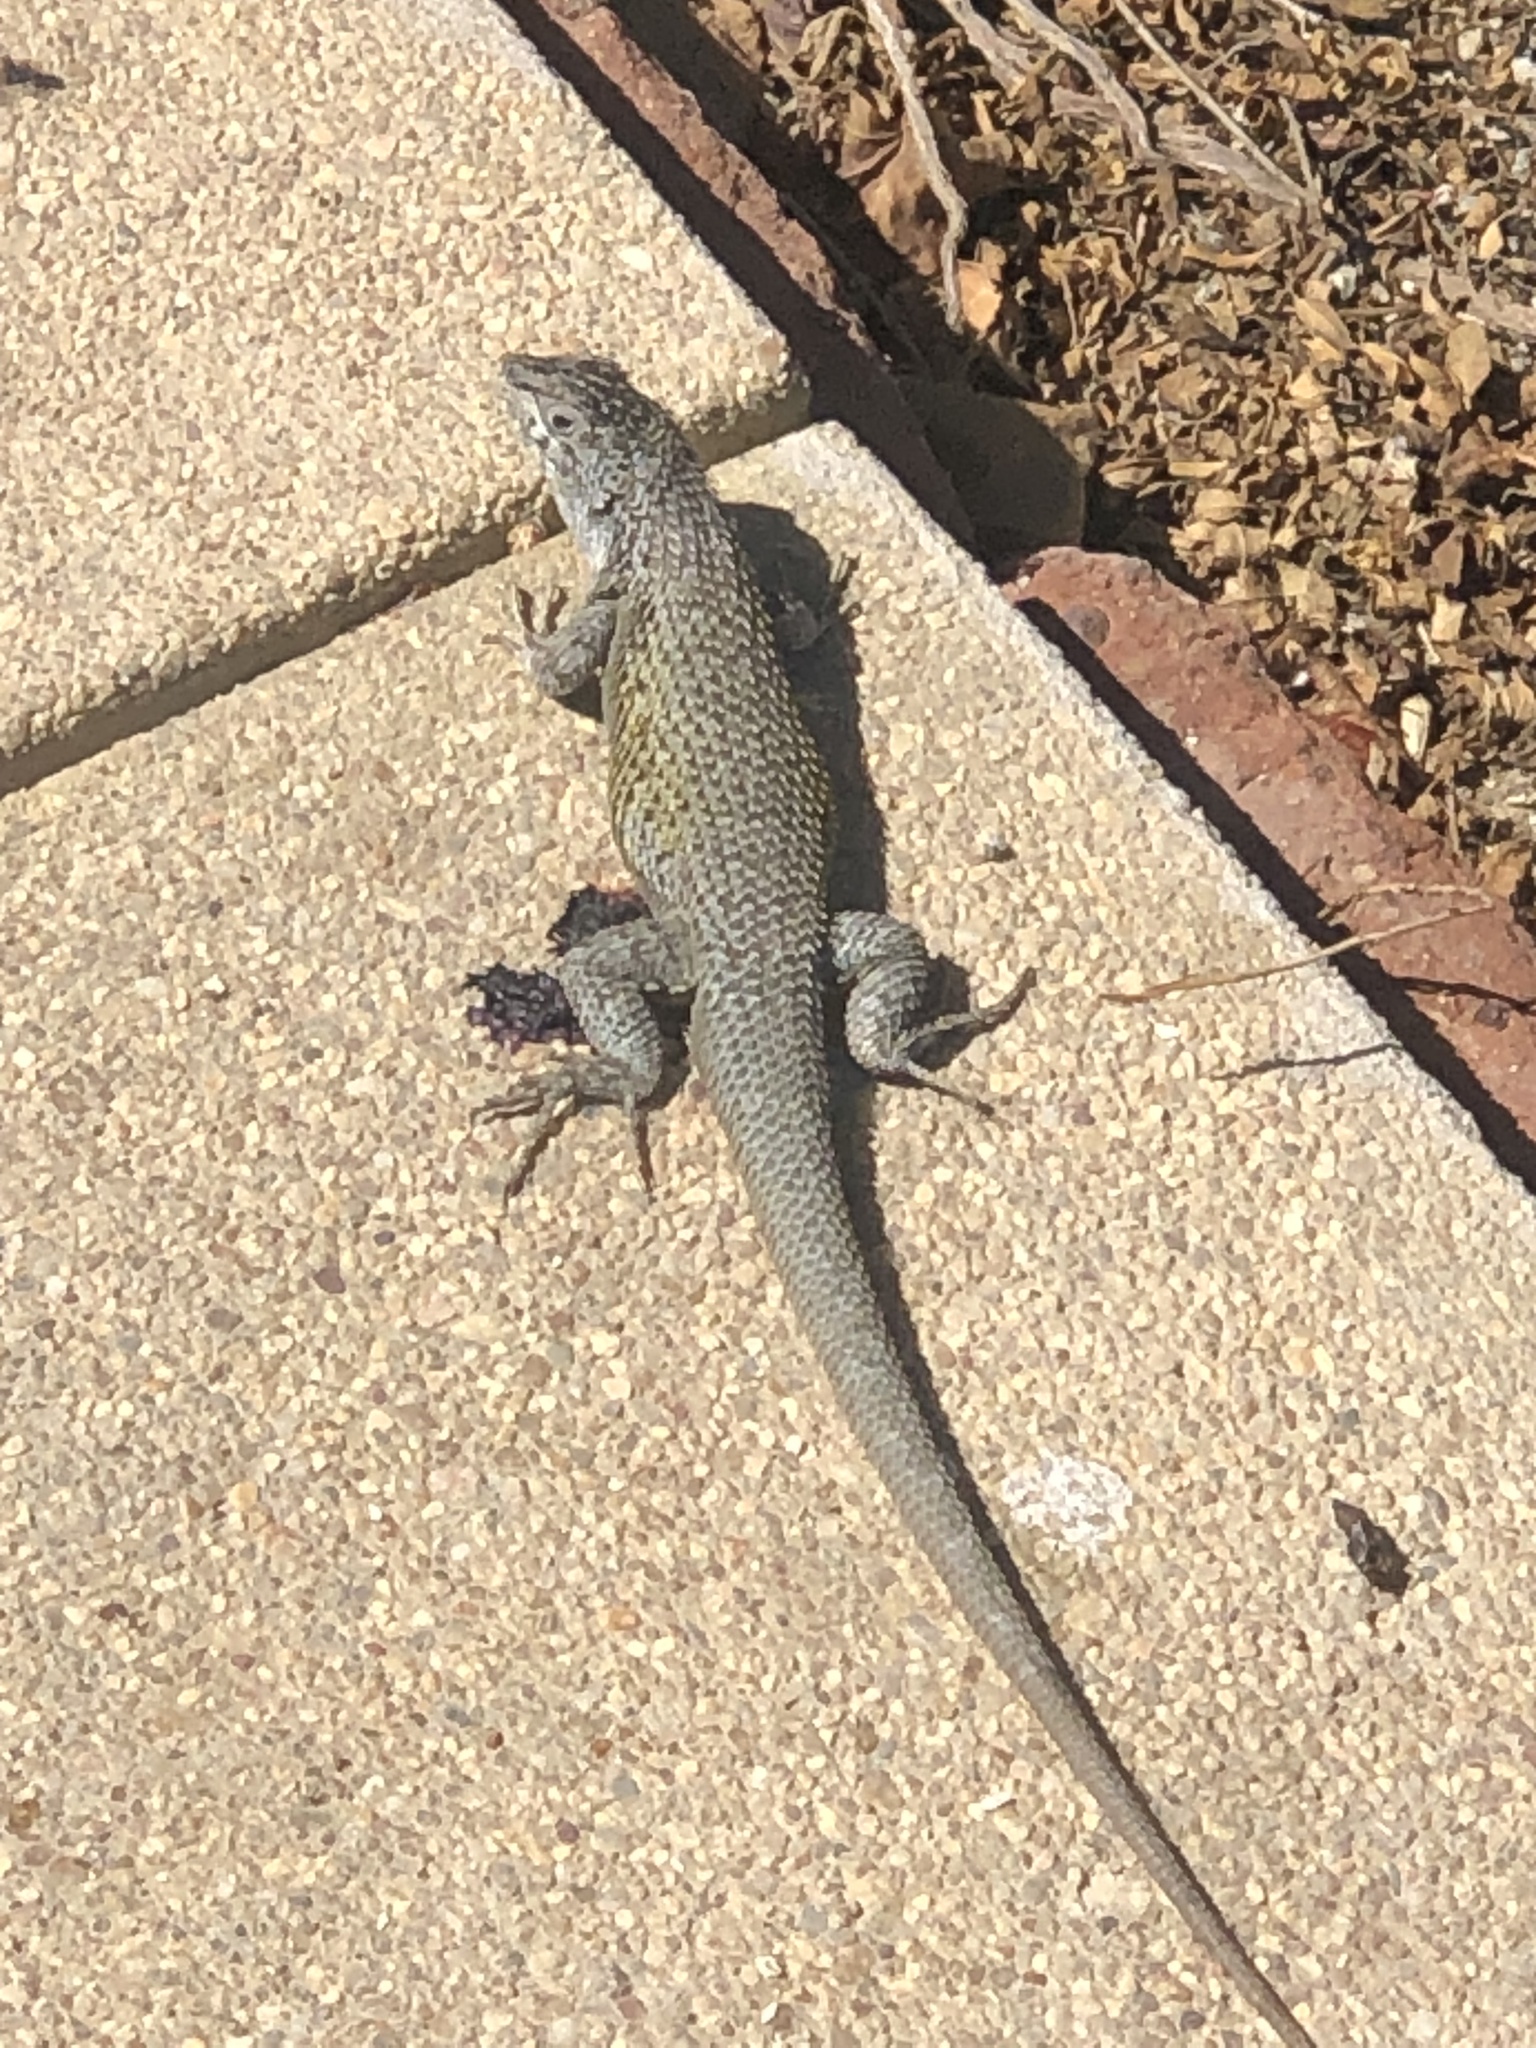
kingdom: Animalia
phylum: Chordata
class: Squamata
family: Liolaemidae
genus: Liolaemus
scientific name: Liolaemus nitidus
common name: Shining tree iguana
